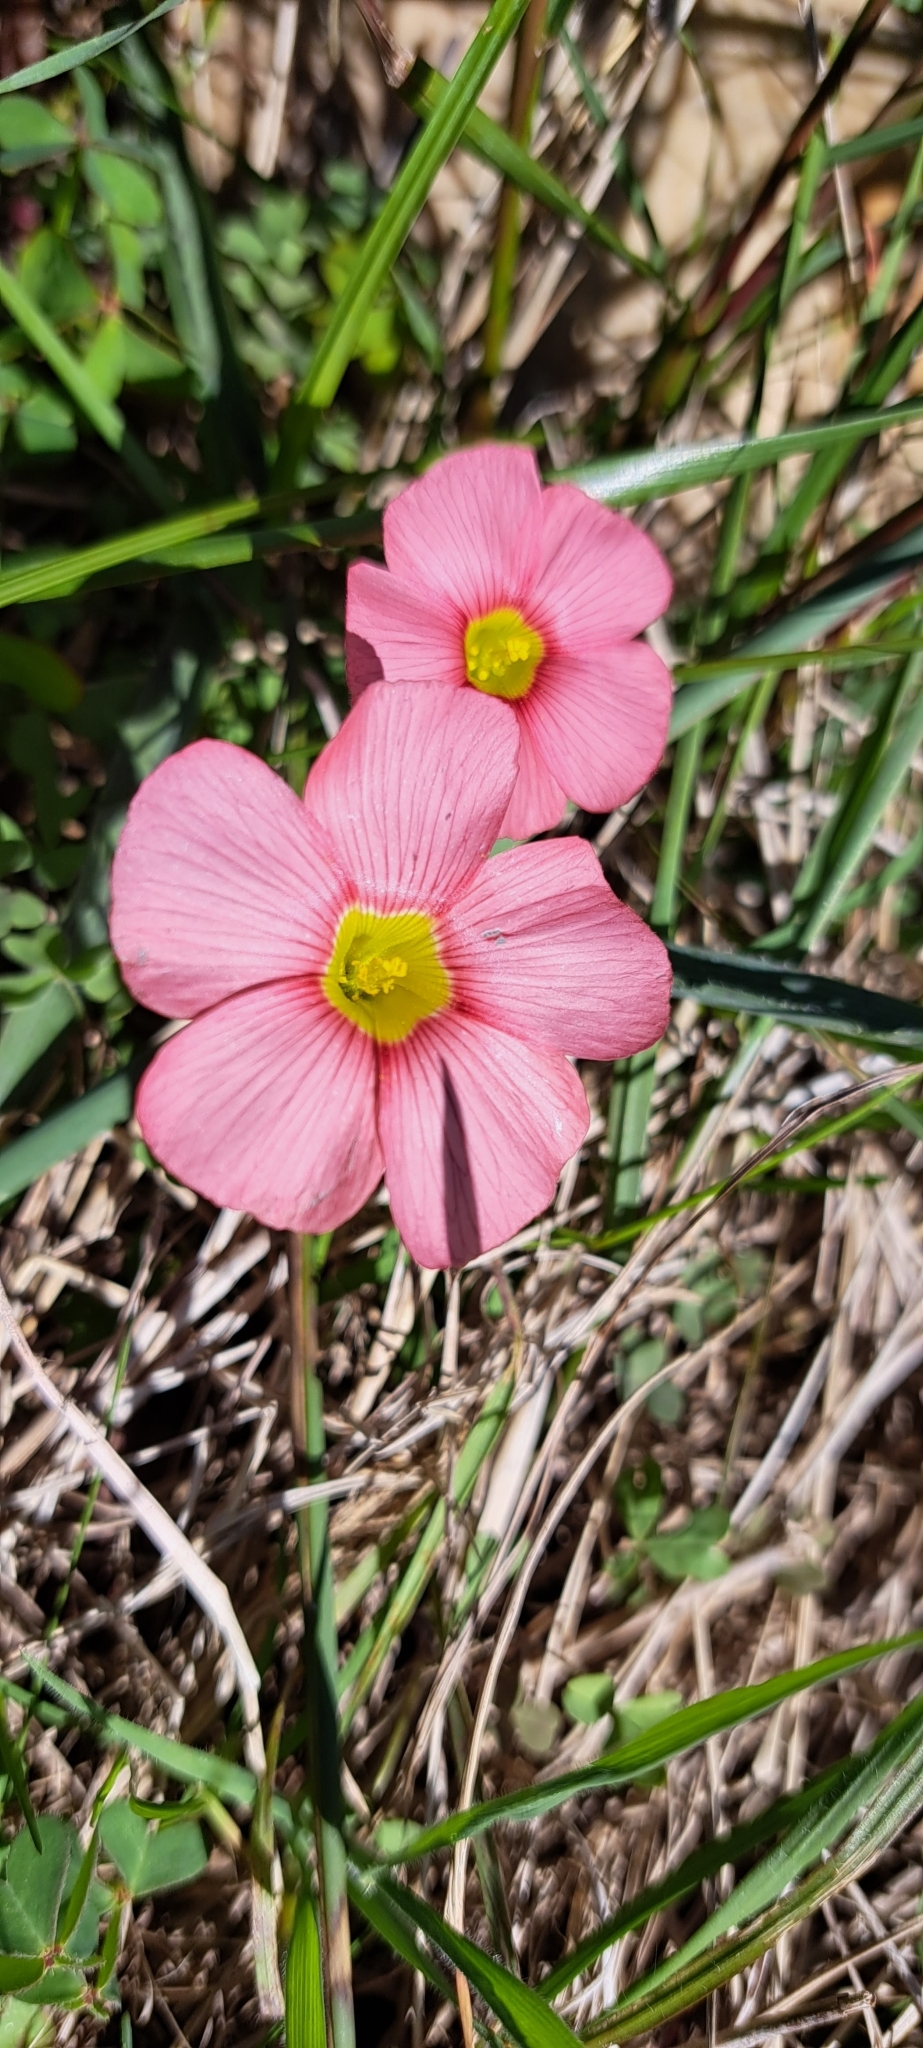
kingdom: Plantae
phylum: Tracheophyta
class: Magnoliopsida
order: Oxalidales
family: Oxalidaceae
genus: Oxalis
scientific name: Oxalis obtusa
